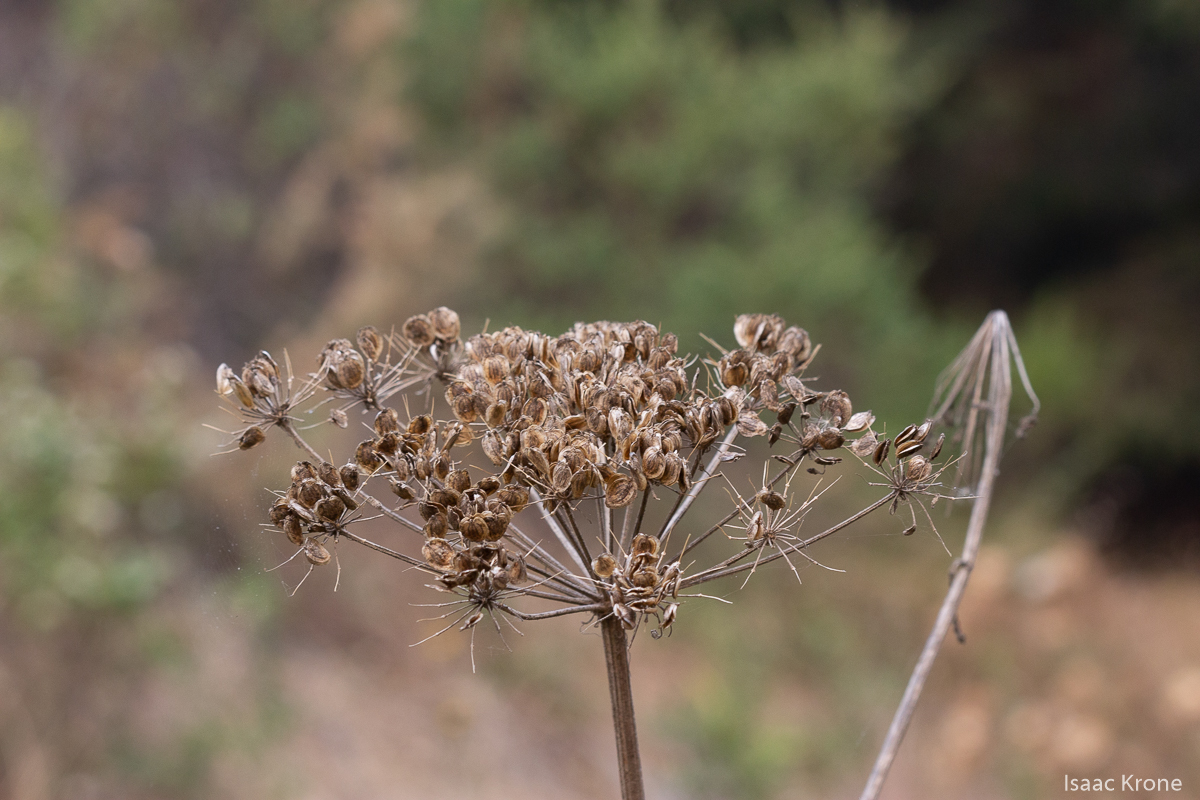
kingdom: Plantae
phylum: Tracheophyta
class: Magnoliopsida
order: Apiales
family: Apiaceae
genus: Heracleum
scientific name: Heracleum maximum
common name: American cow parsnip
